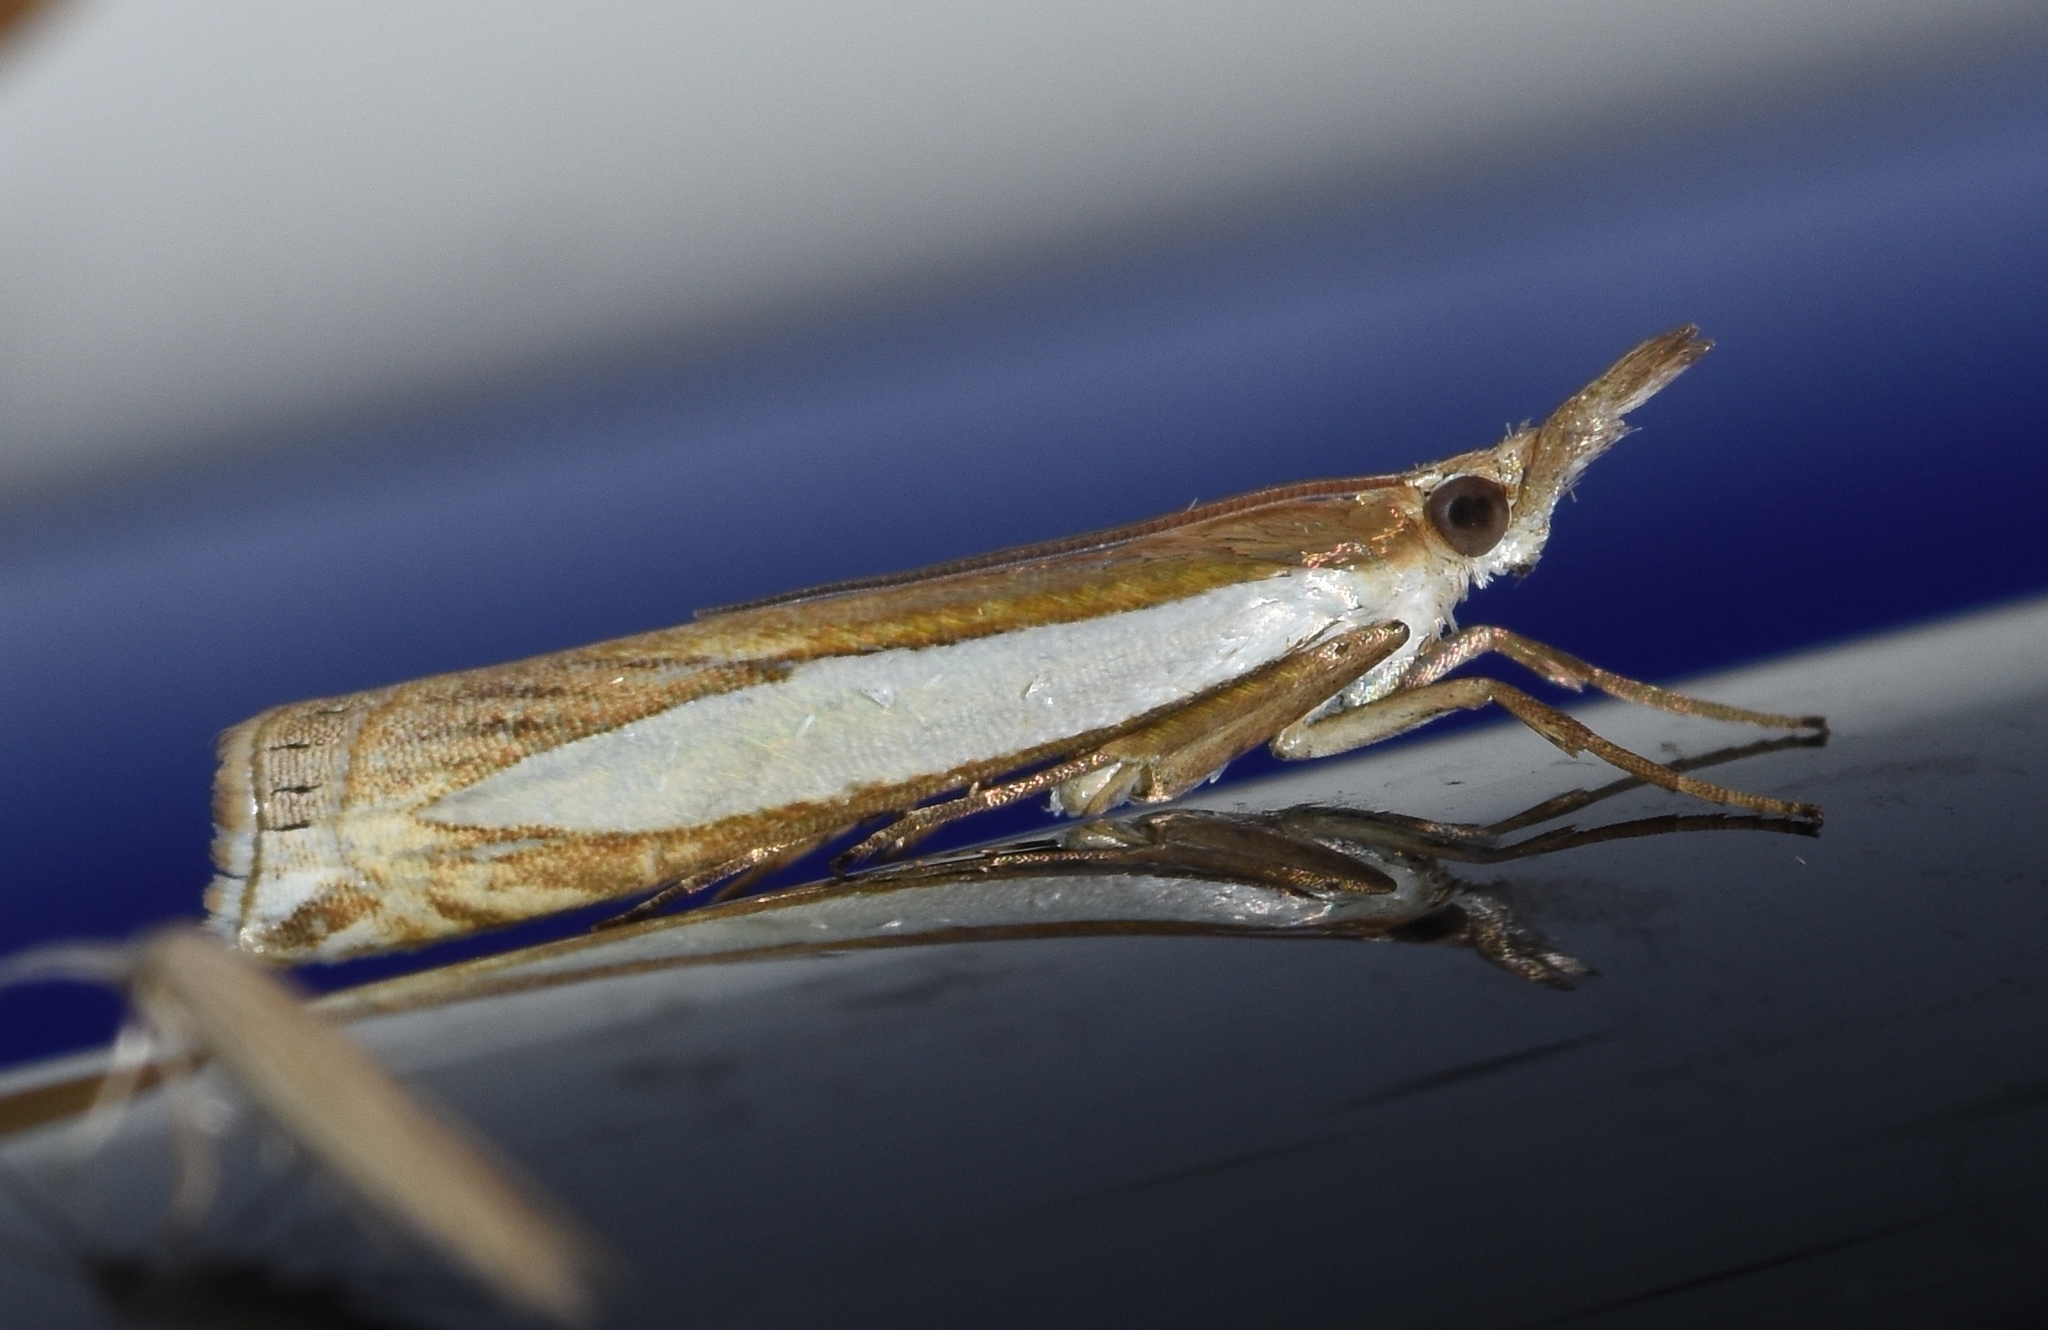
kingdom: Animalia
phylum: Arthropoda
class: Insecta
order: Lepidoptera
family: Crambidae
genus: Crambus
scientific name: Crambus leachellus
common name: Leach's grass-veneer
